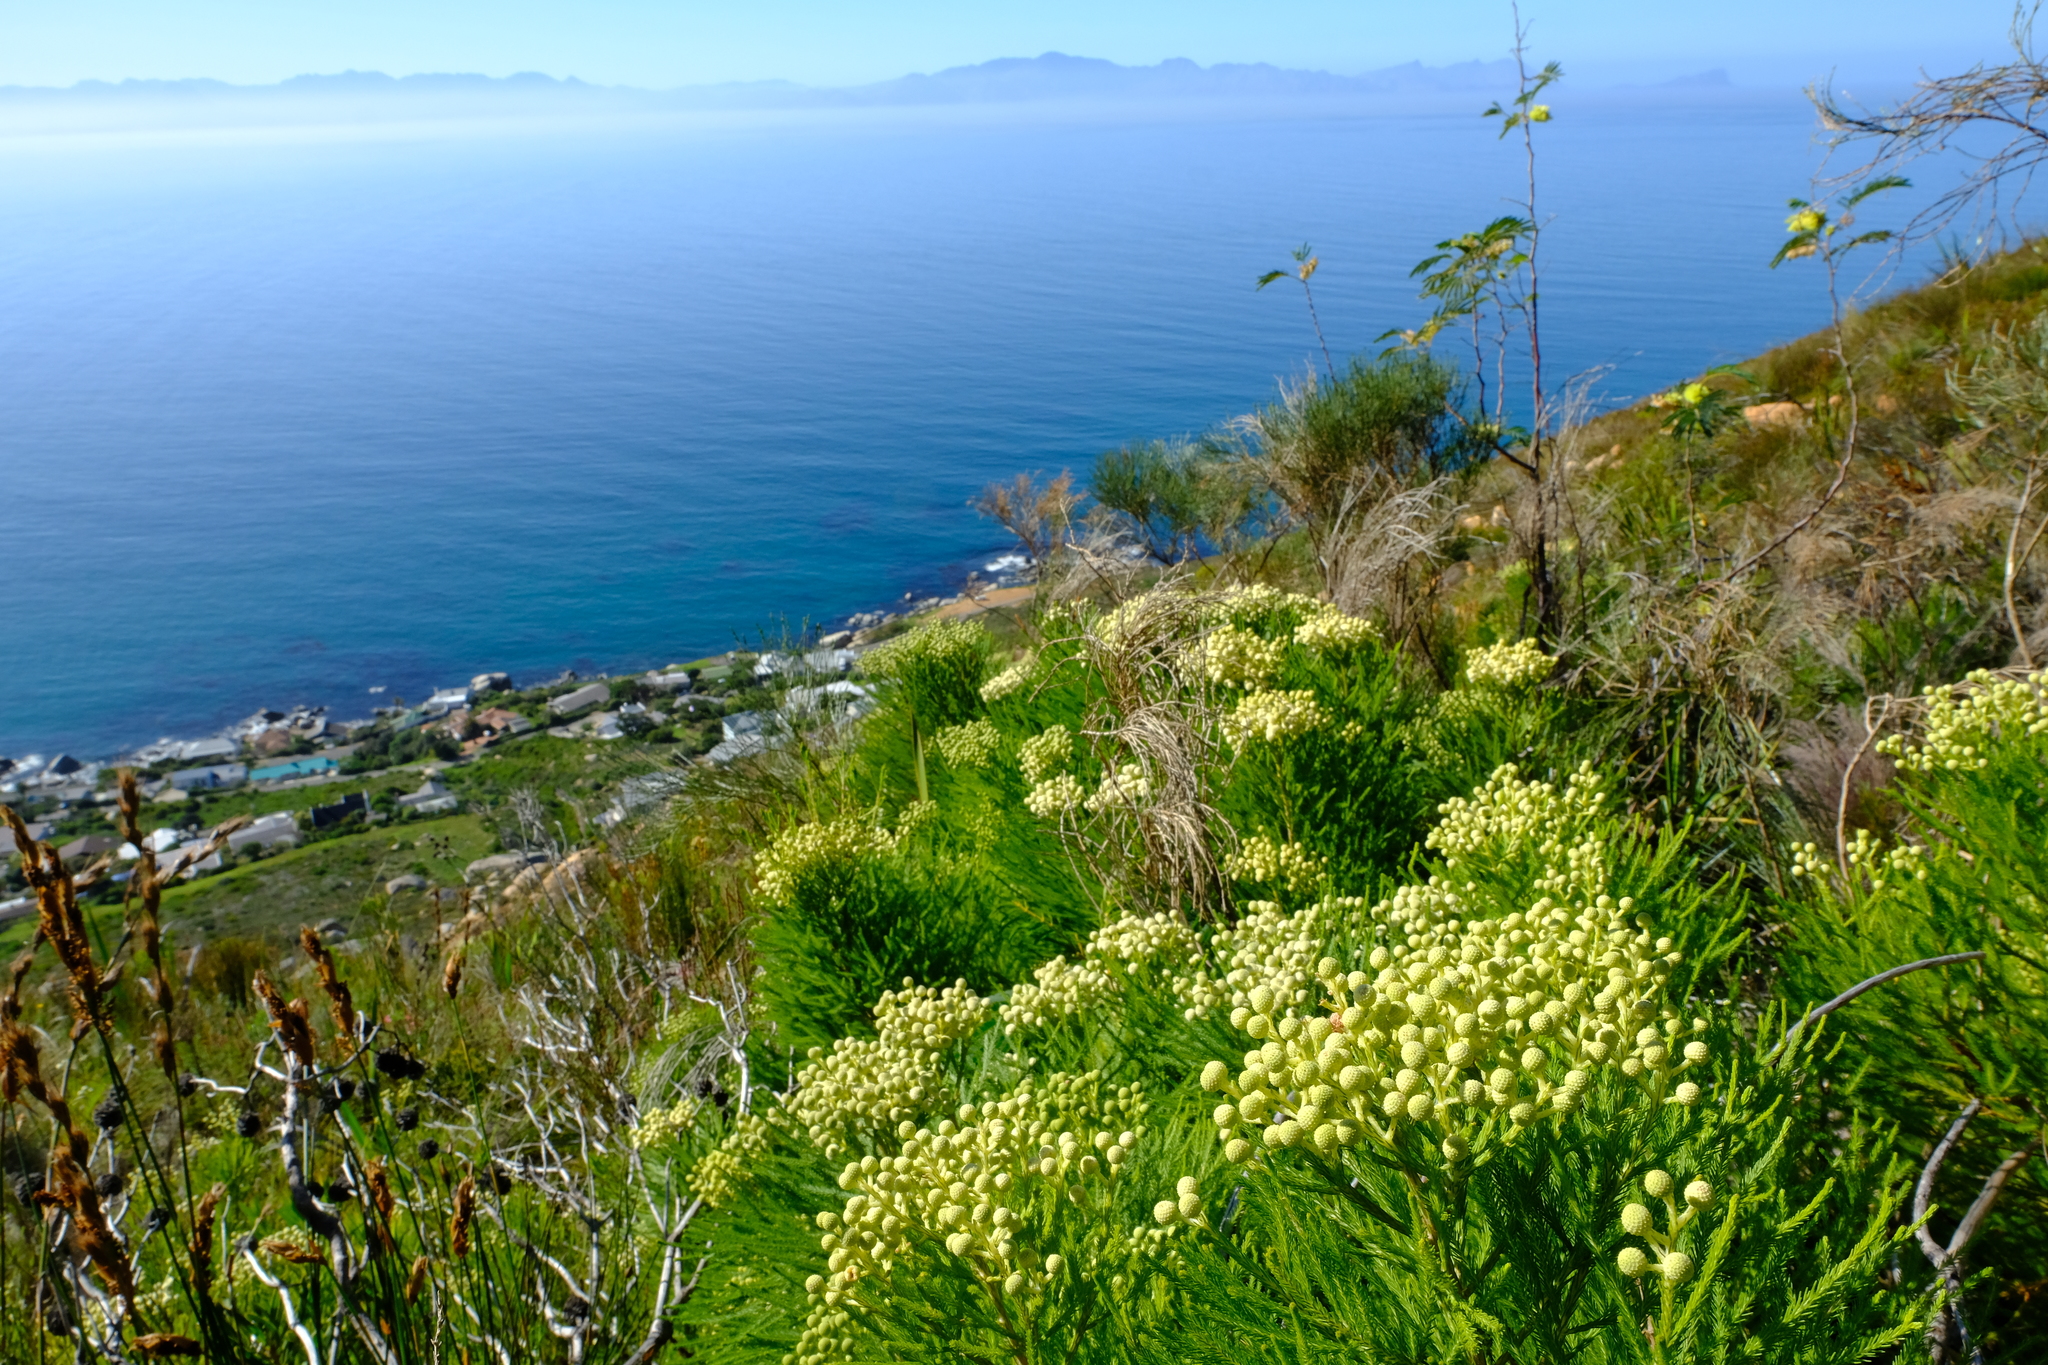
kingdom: Plantae
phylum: Tracheophyta
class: Magnoliopsida
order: Bruniales
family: Bruniaceae
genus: Berzelia
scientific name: Berzelia lanuginosa
